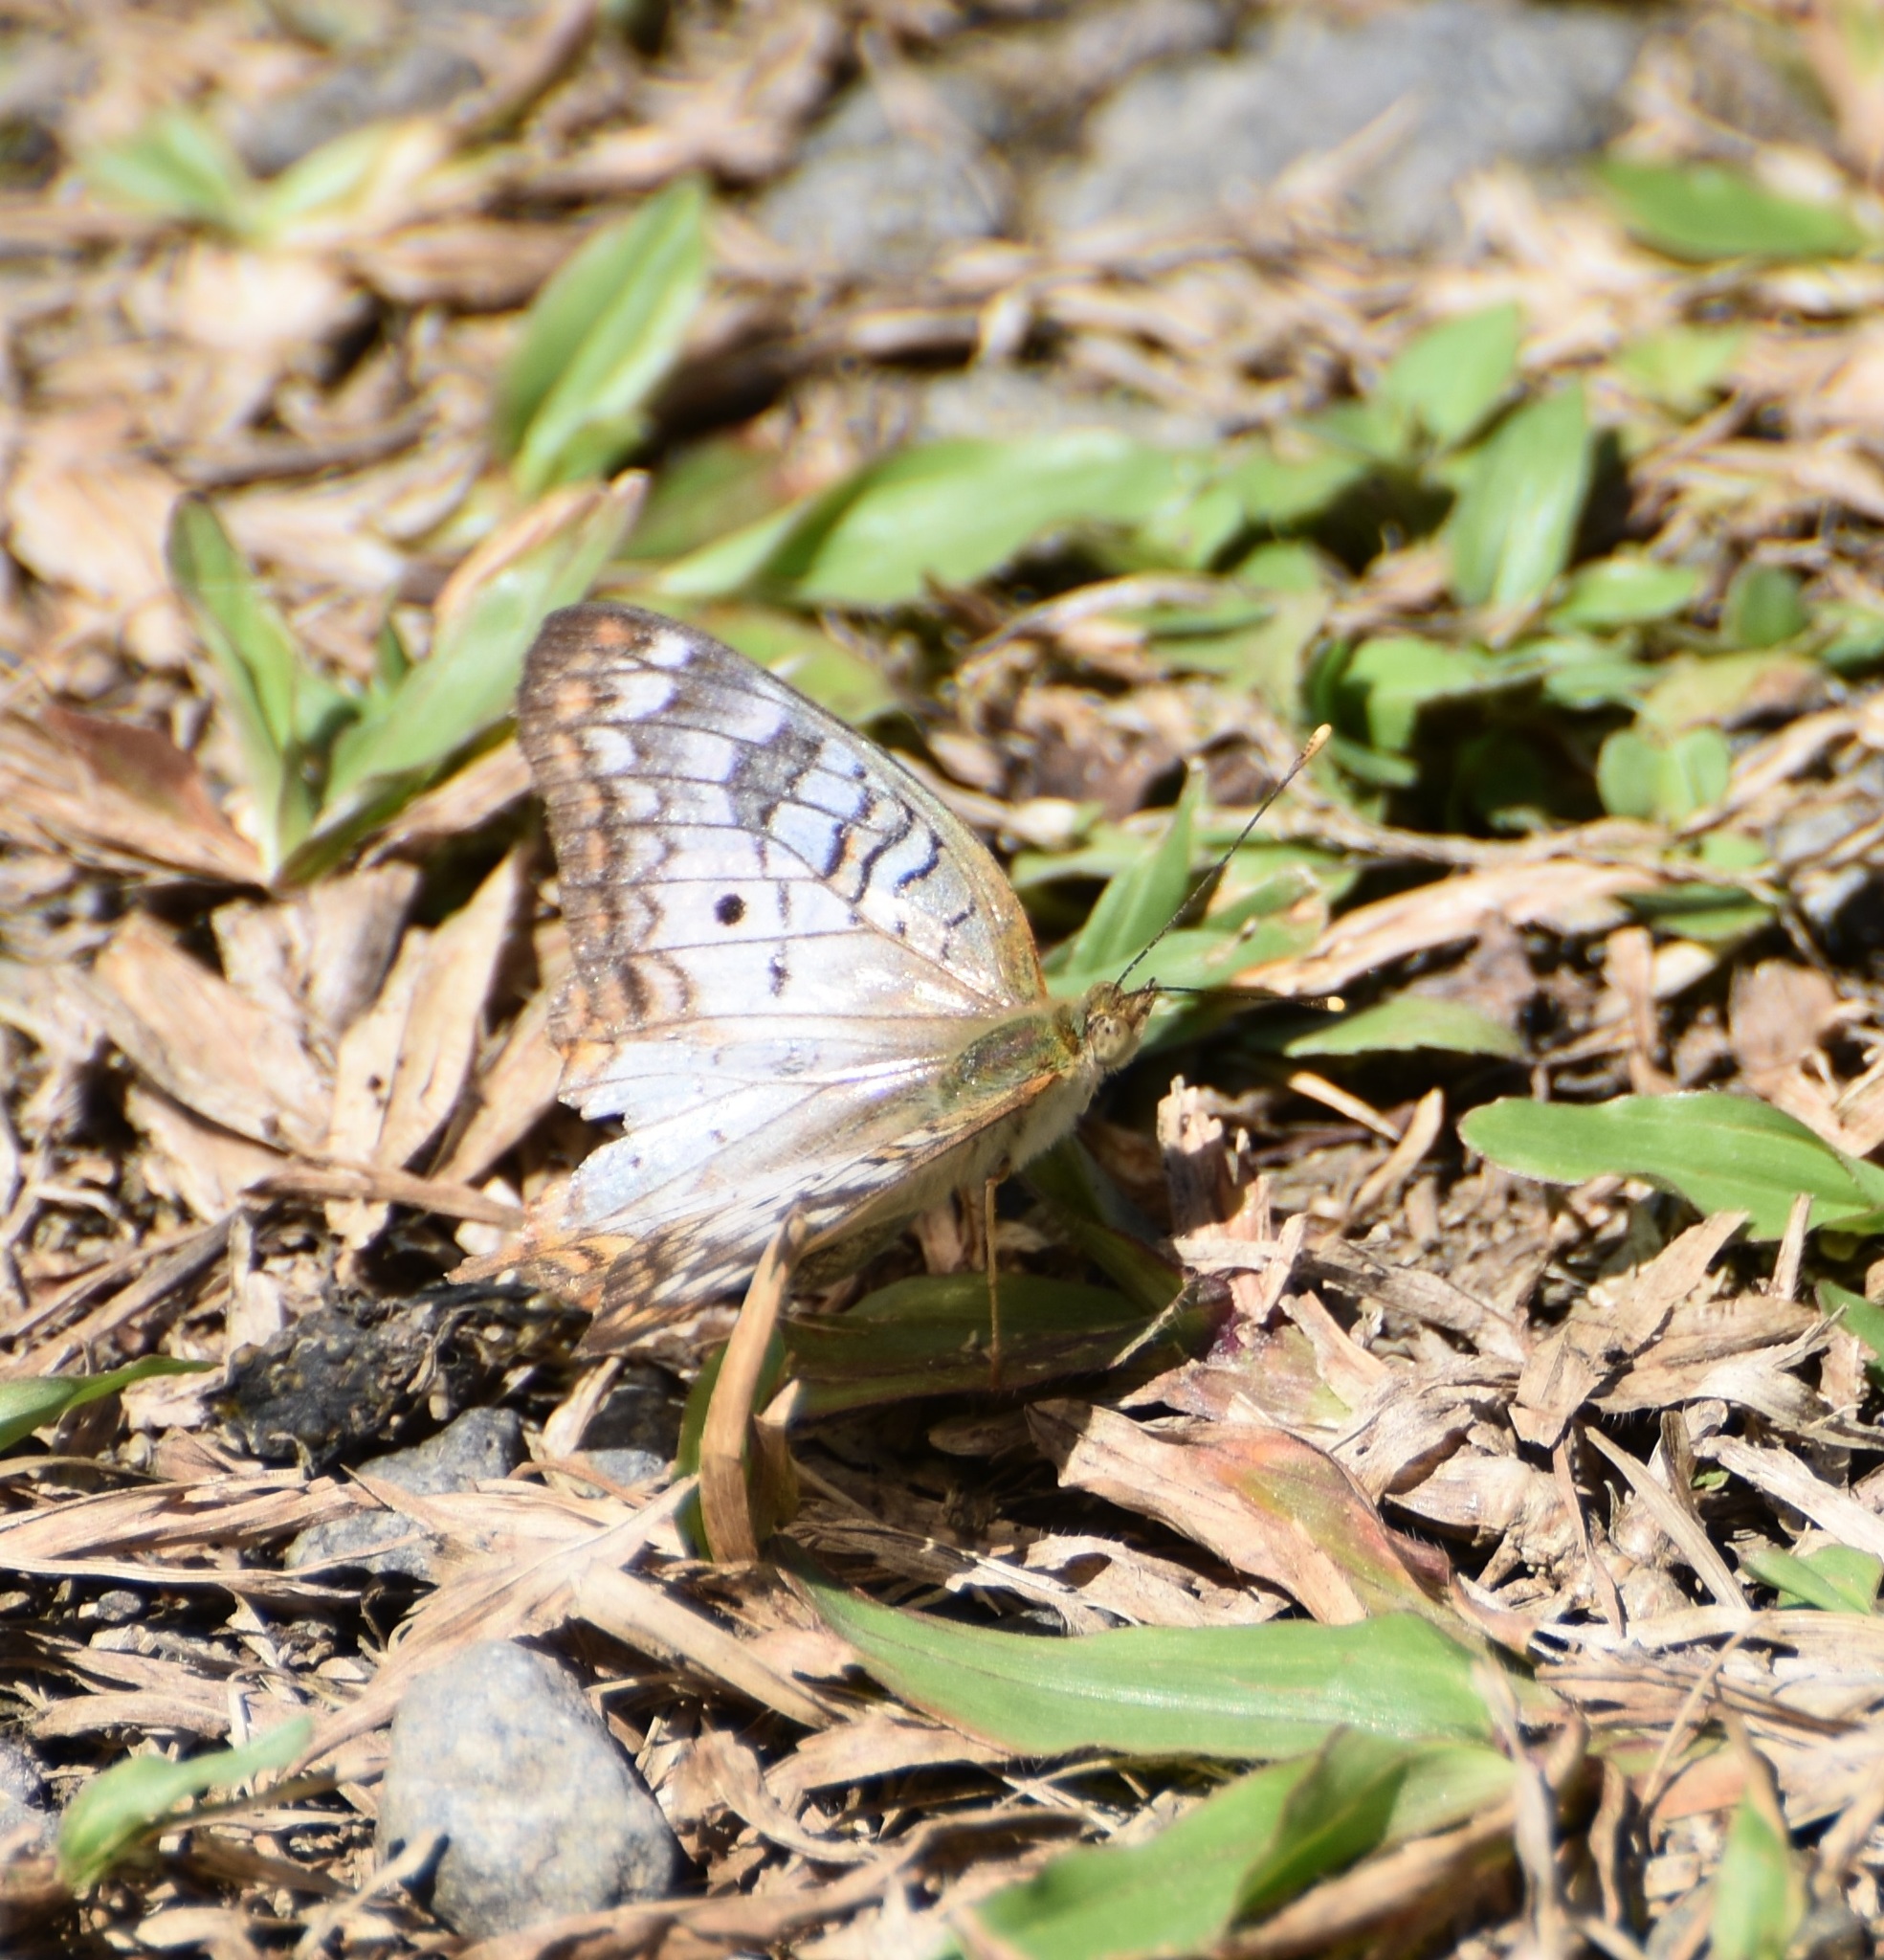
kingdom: Animalia
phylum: Arthropoda
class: Insecta
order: Lepidoptera
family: Nymphalidae
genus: Anartia
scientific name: Anartia jatrophae
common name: White peacock
